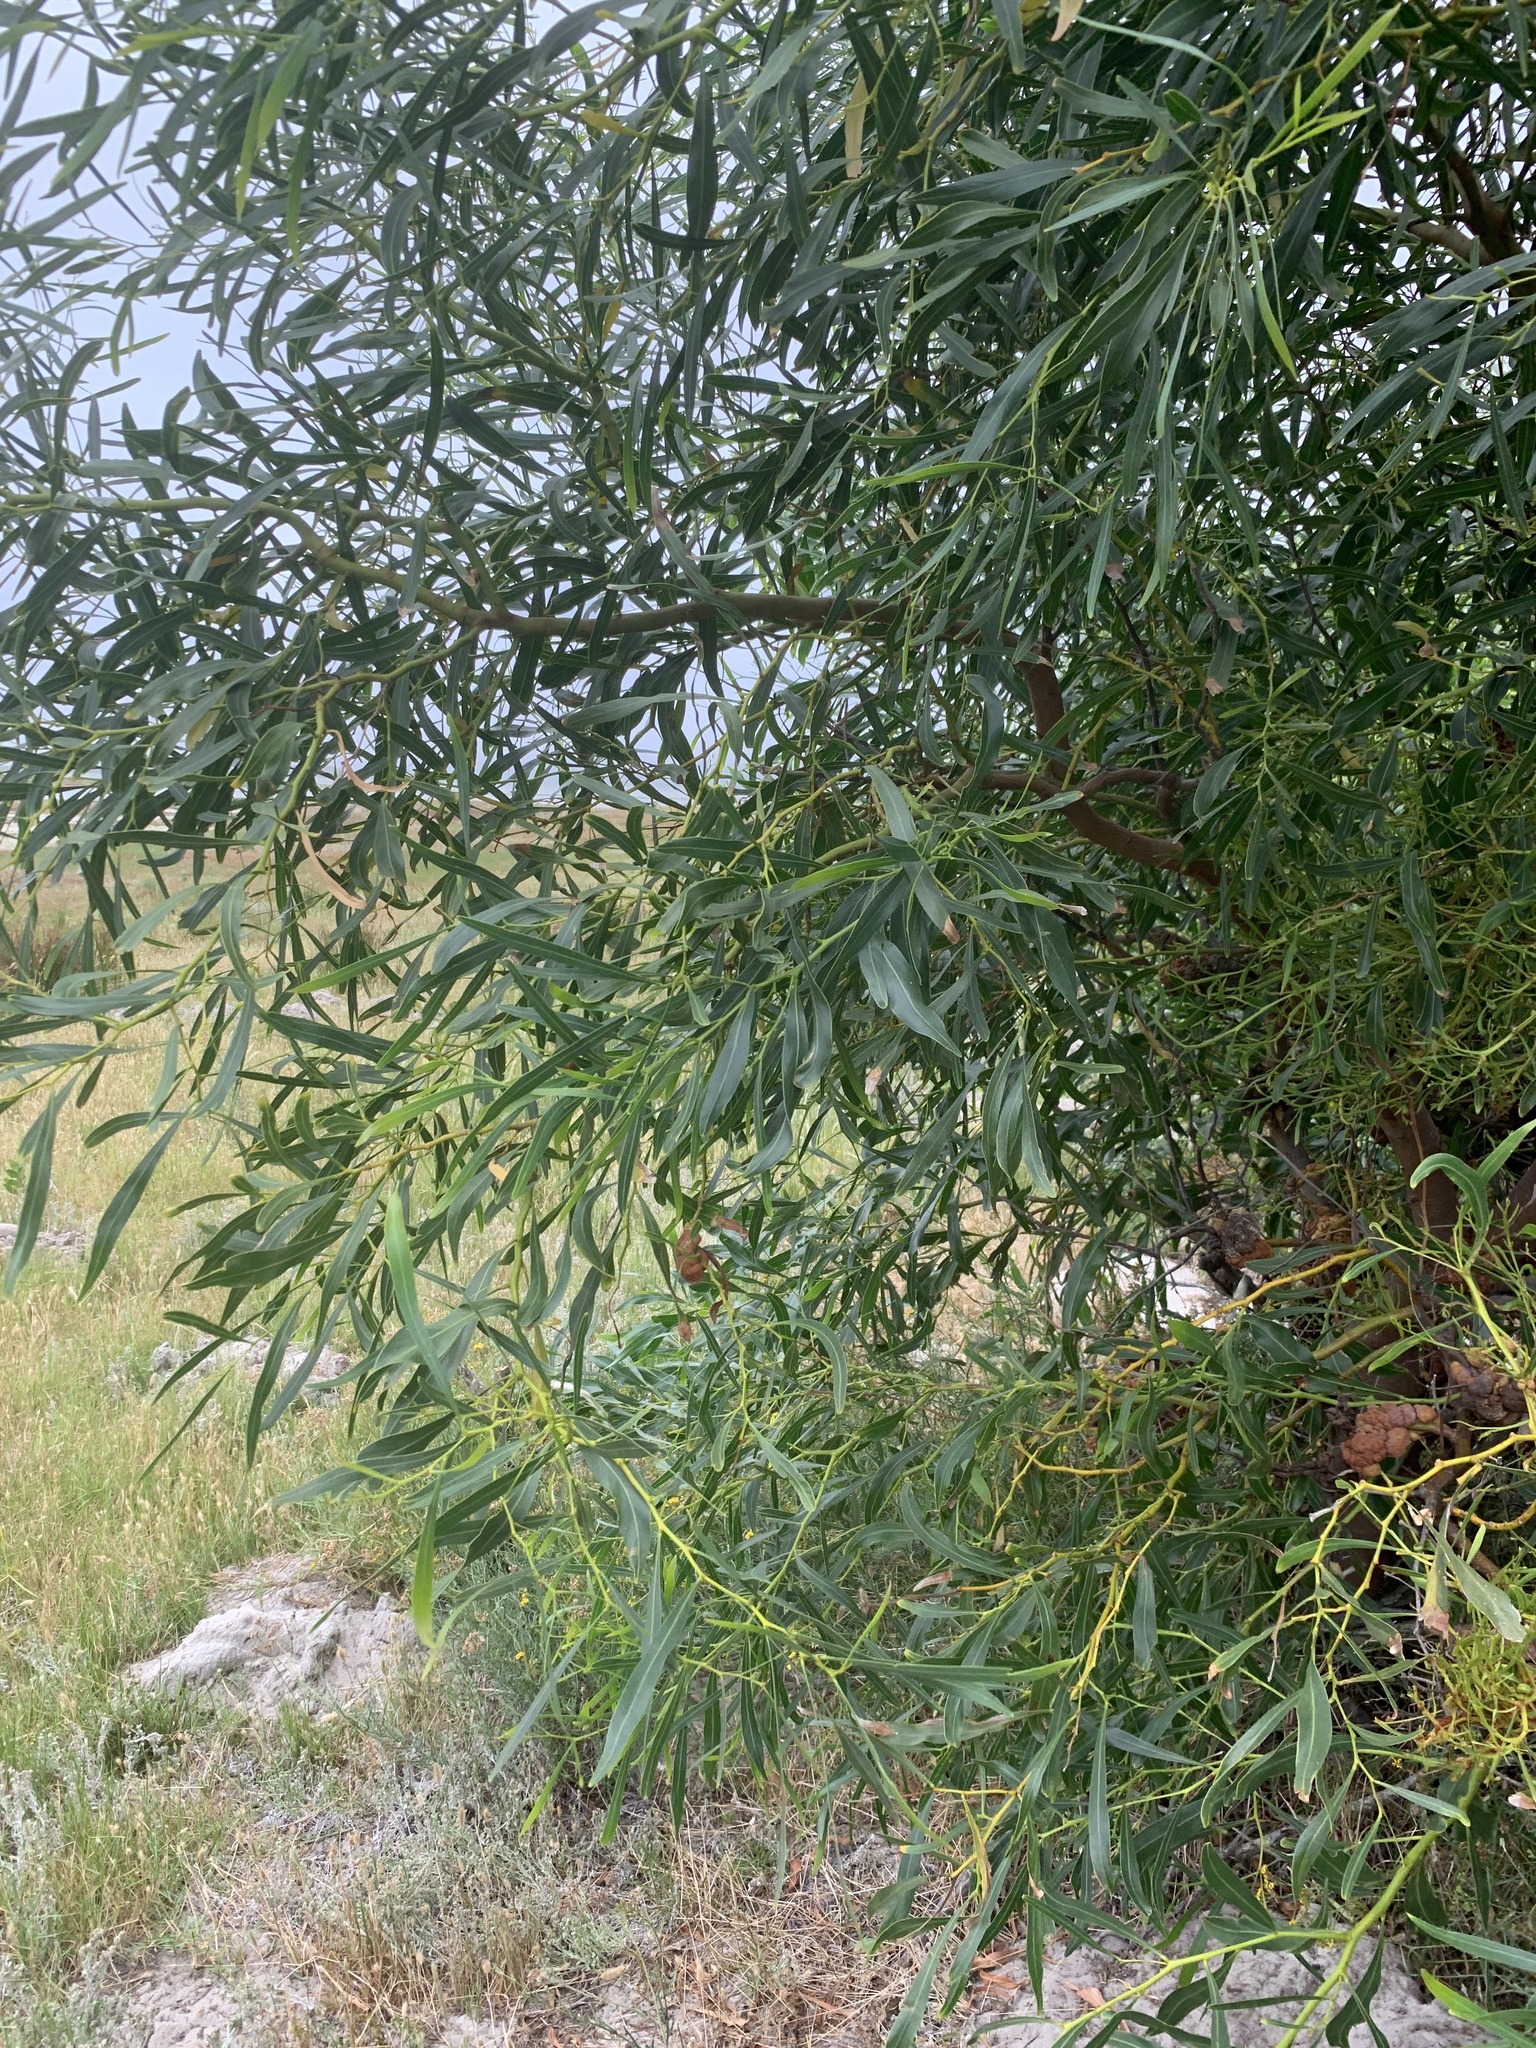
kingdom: Plantae
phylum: Tracheophyta
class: Magnoliopsida
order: Fabales
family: Fabaceae
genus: Acacia
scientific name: Acacia saligna
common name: Orange wattle
